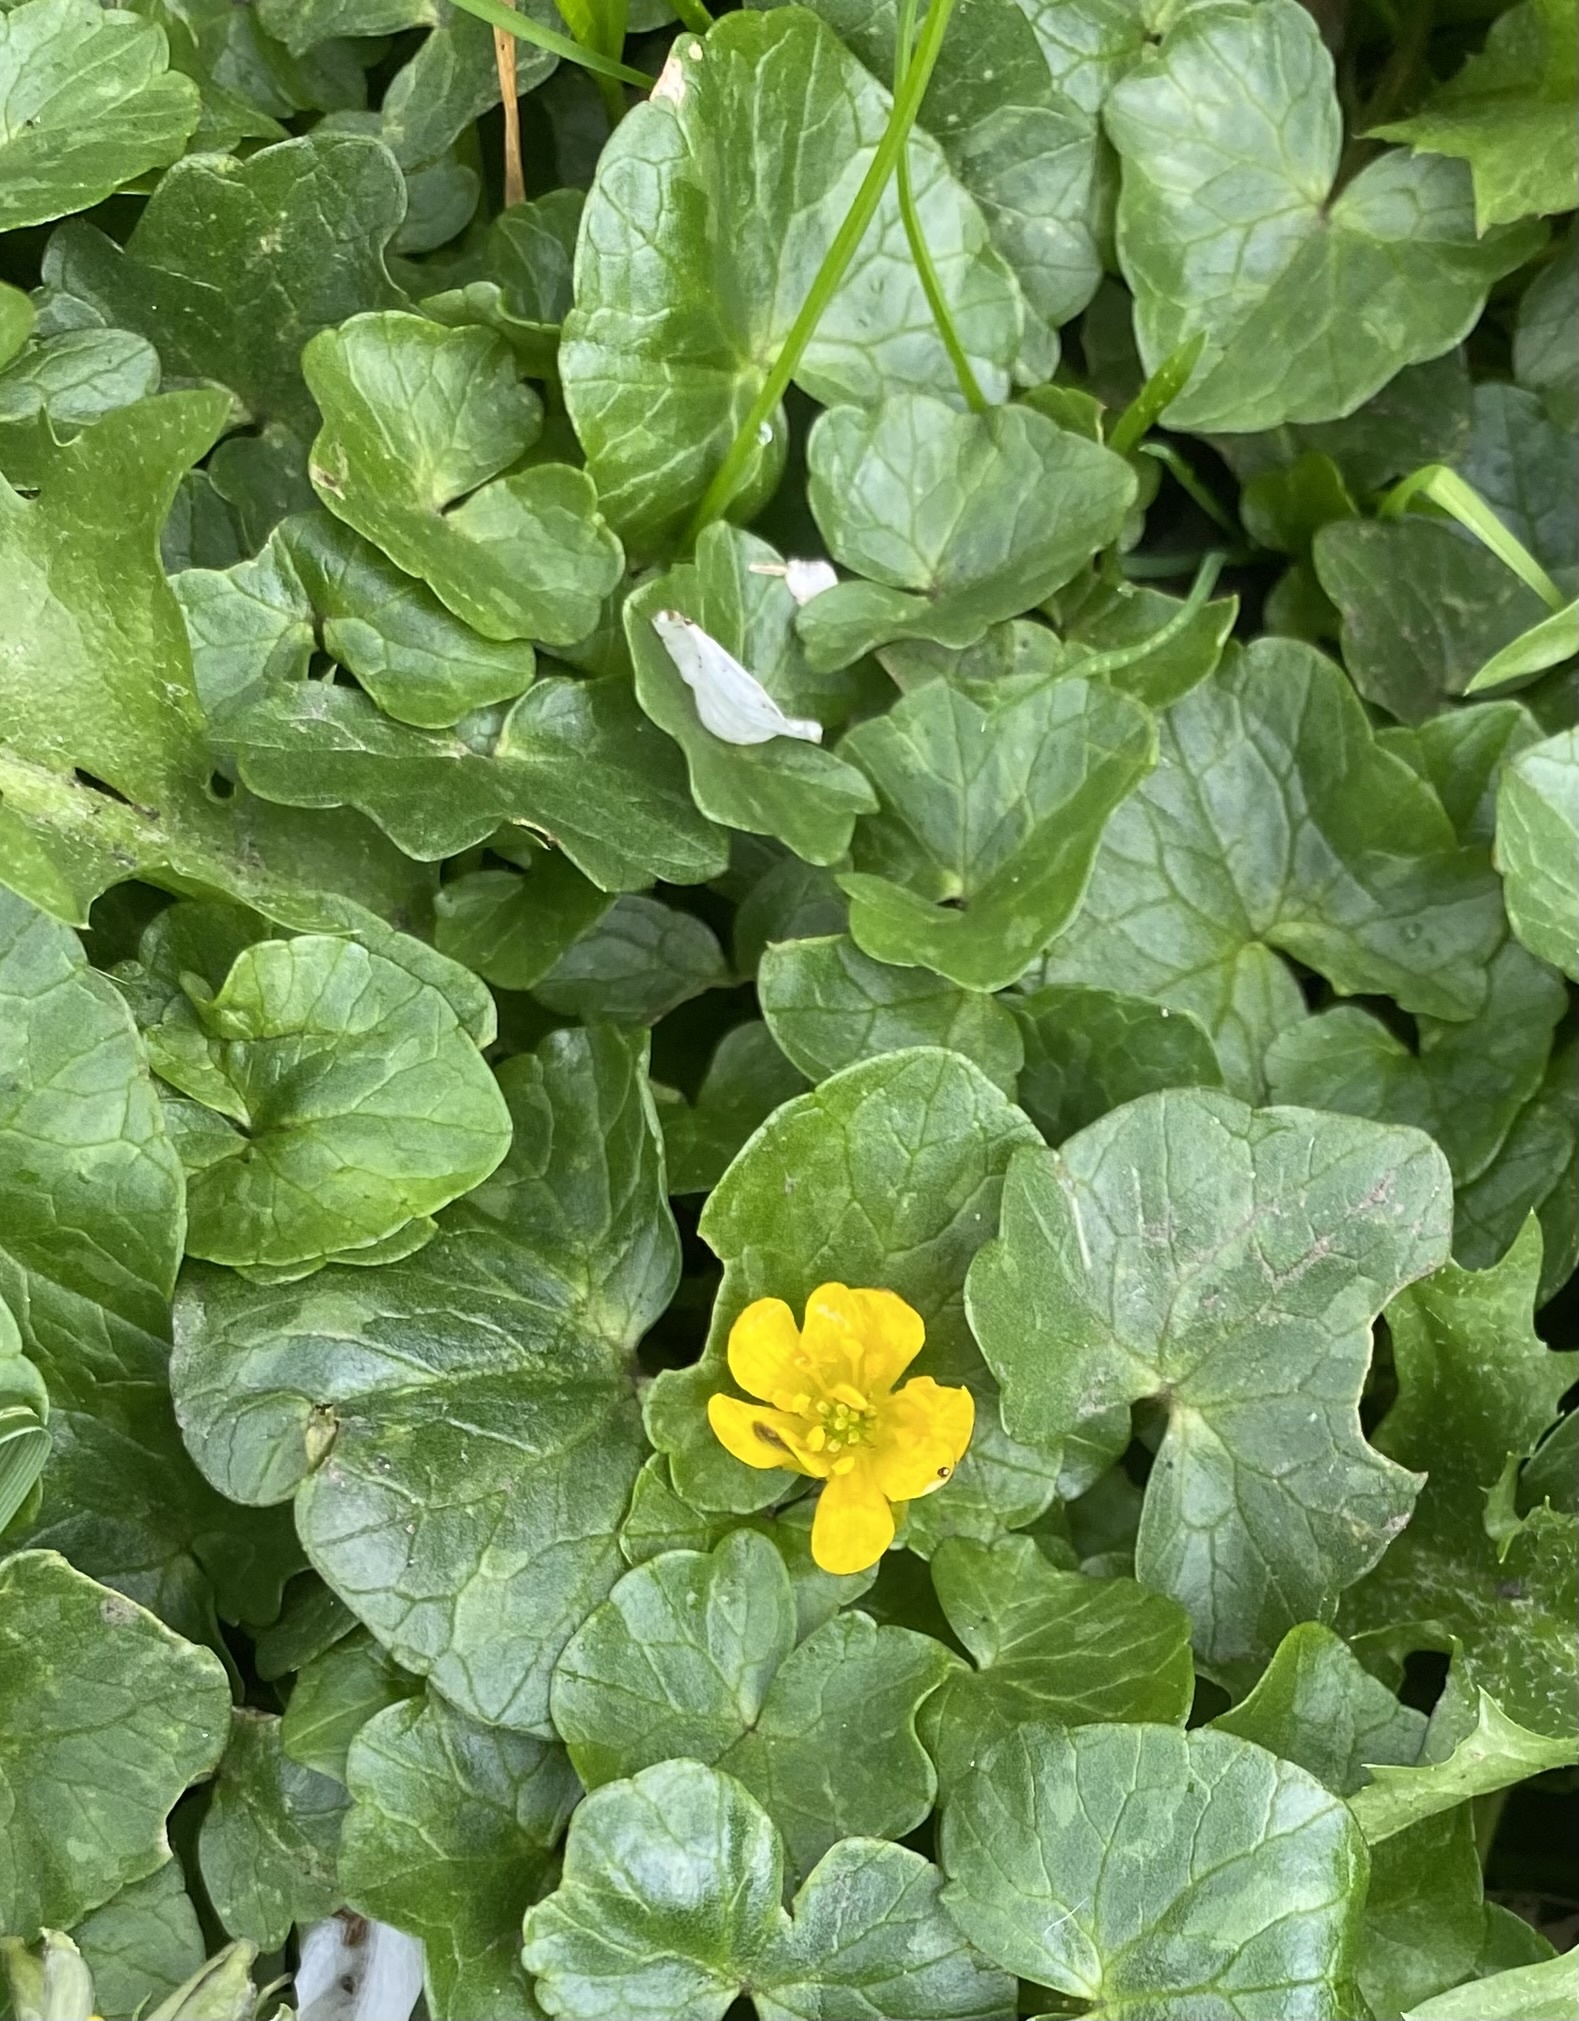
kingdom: Plantae
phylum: Tracheophyta
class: Magnoliopsida
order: Ranunculales
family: Ranunculaceae
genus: Ficaria
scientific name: Ficaria verna
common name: Lesser celandine
